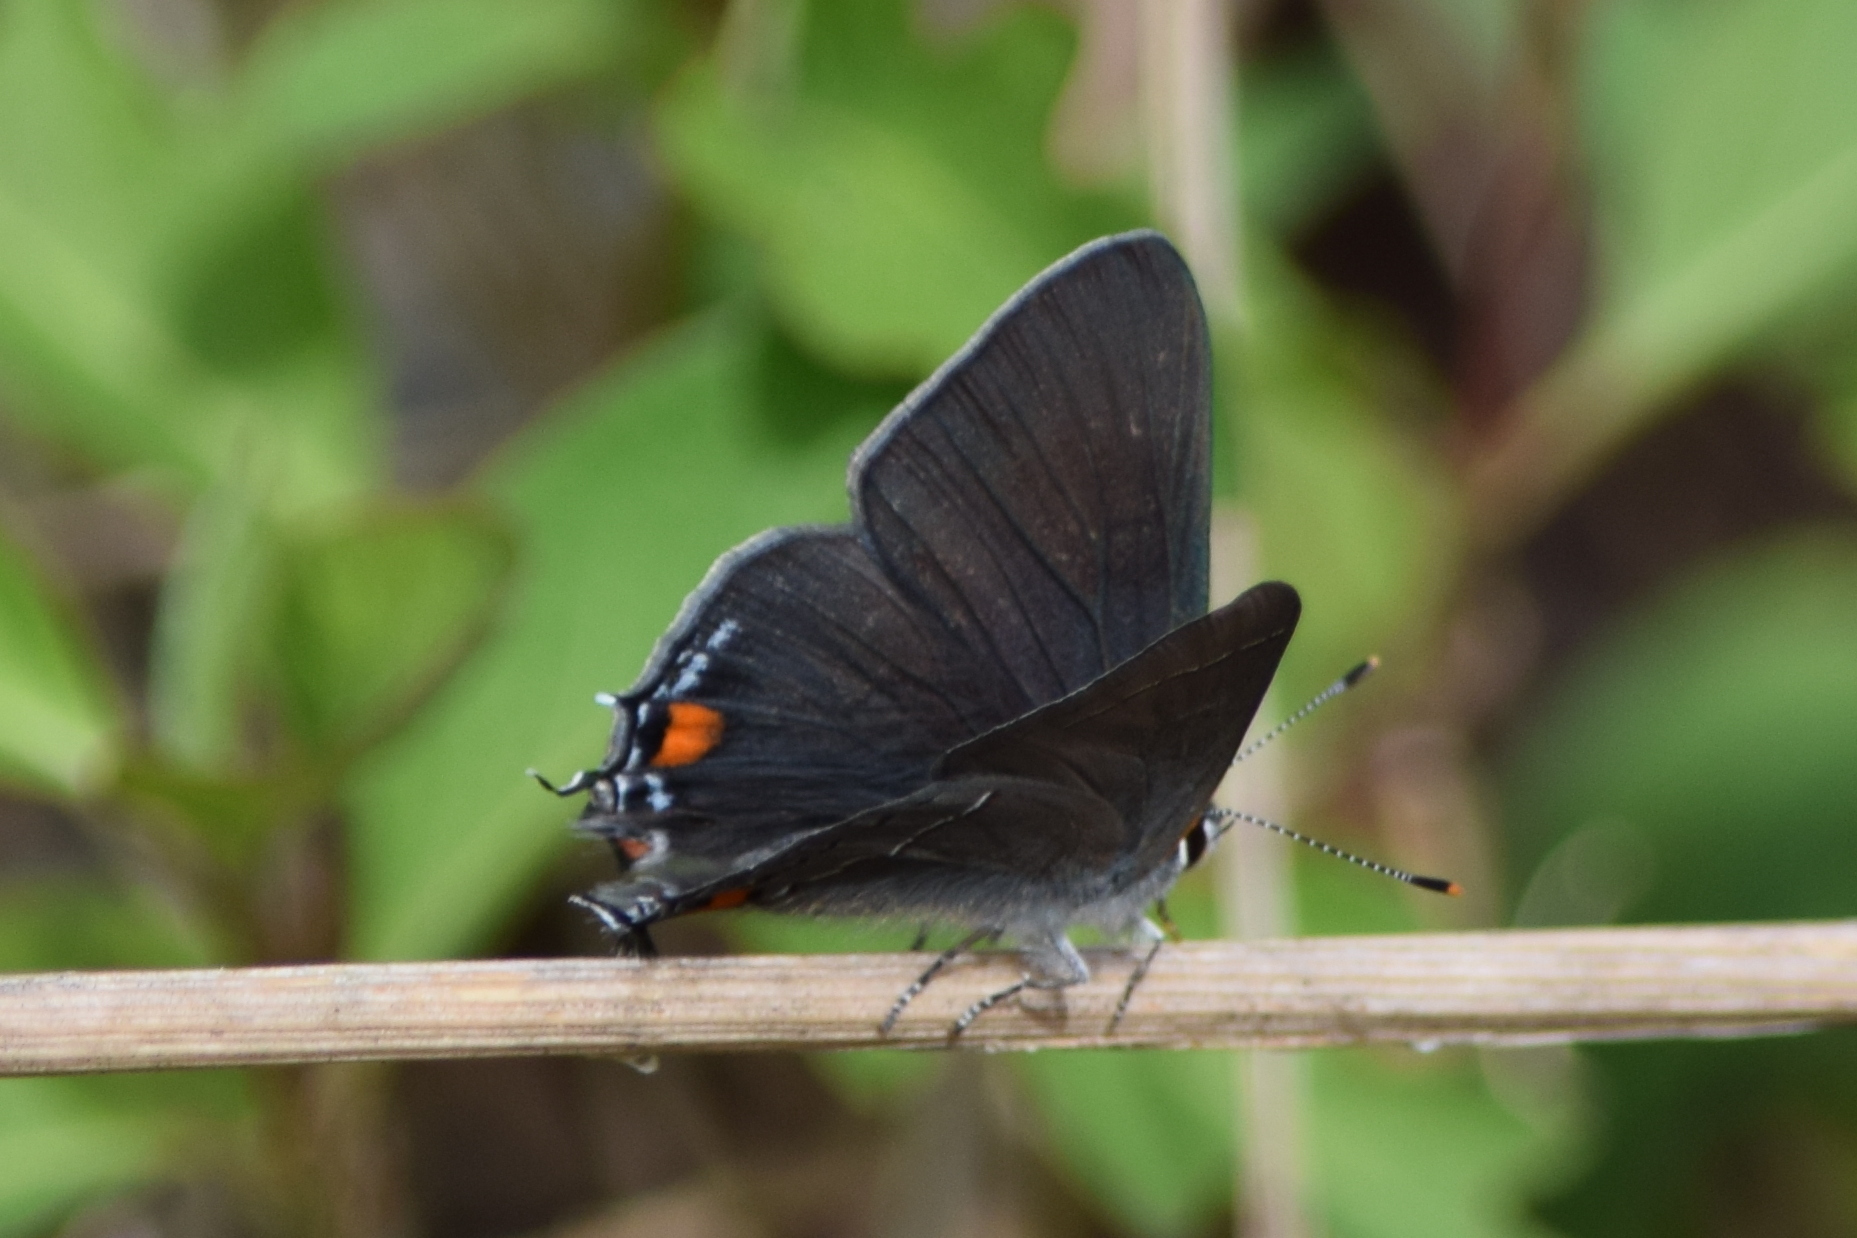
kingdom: Animalia
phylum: Arthropoda
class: Insecta
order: Lepidoptera
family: Lycaenidae
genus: Strymon
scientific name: Strymon melinus
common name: Gray hairstreak
